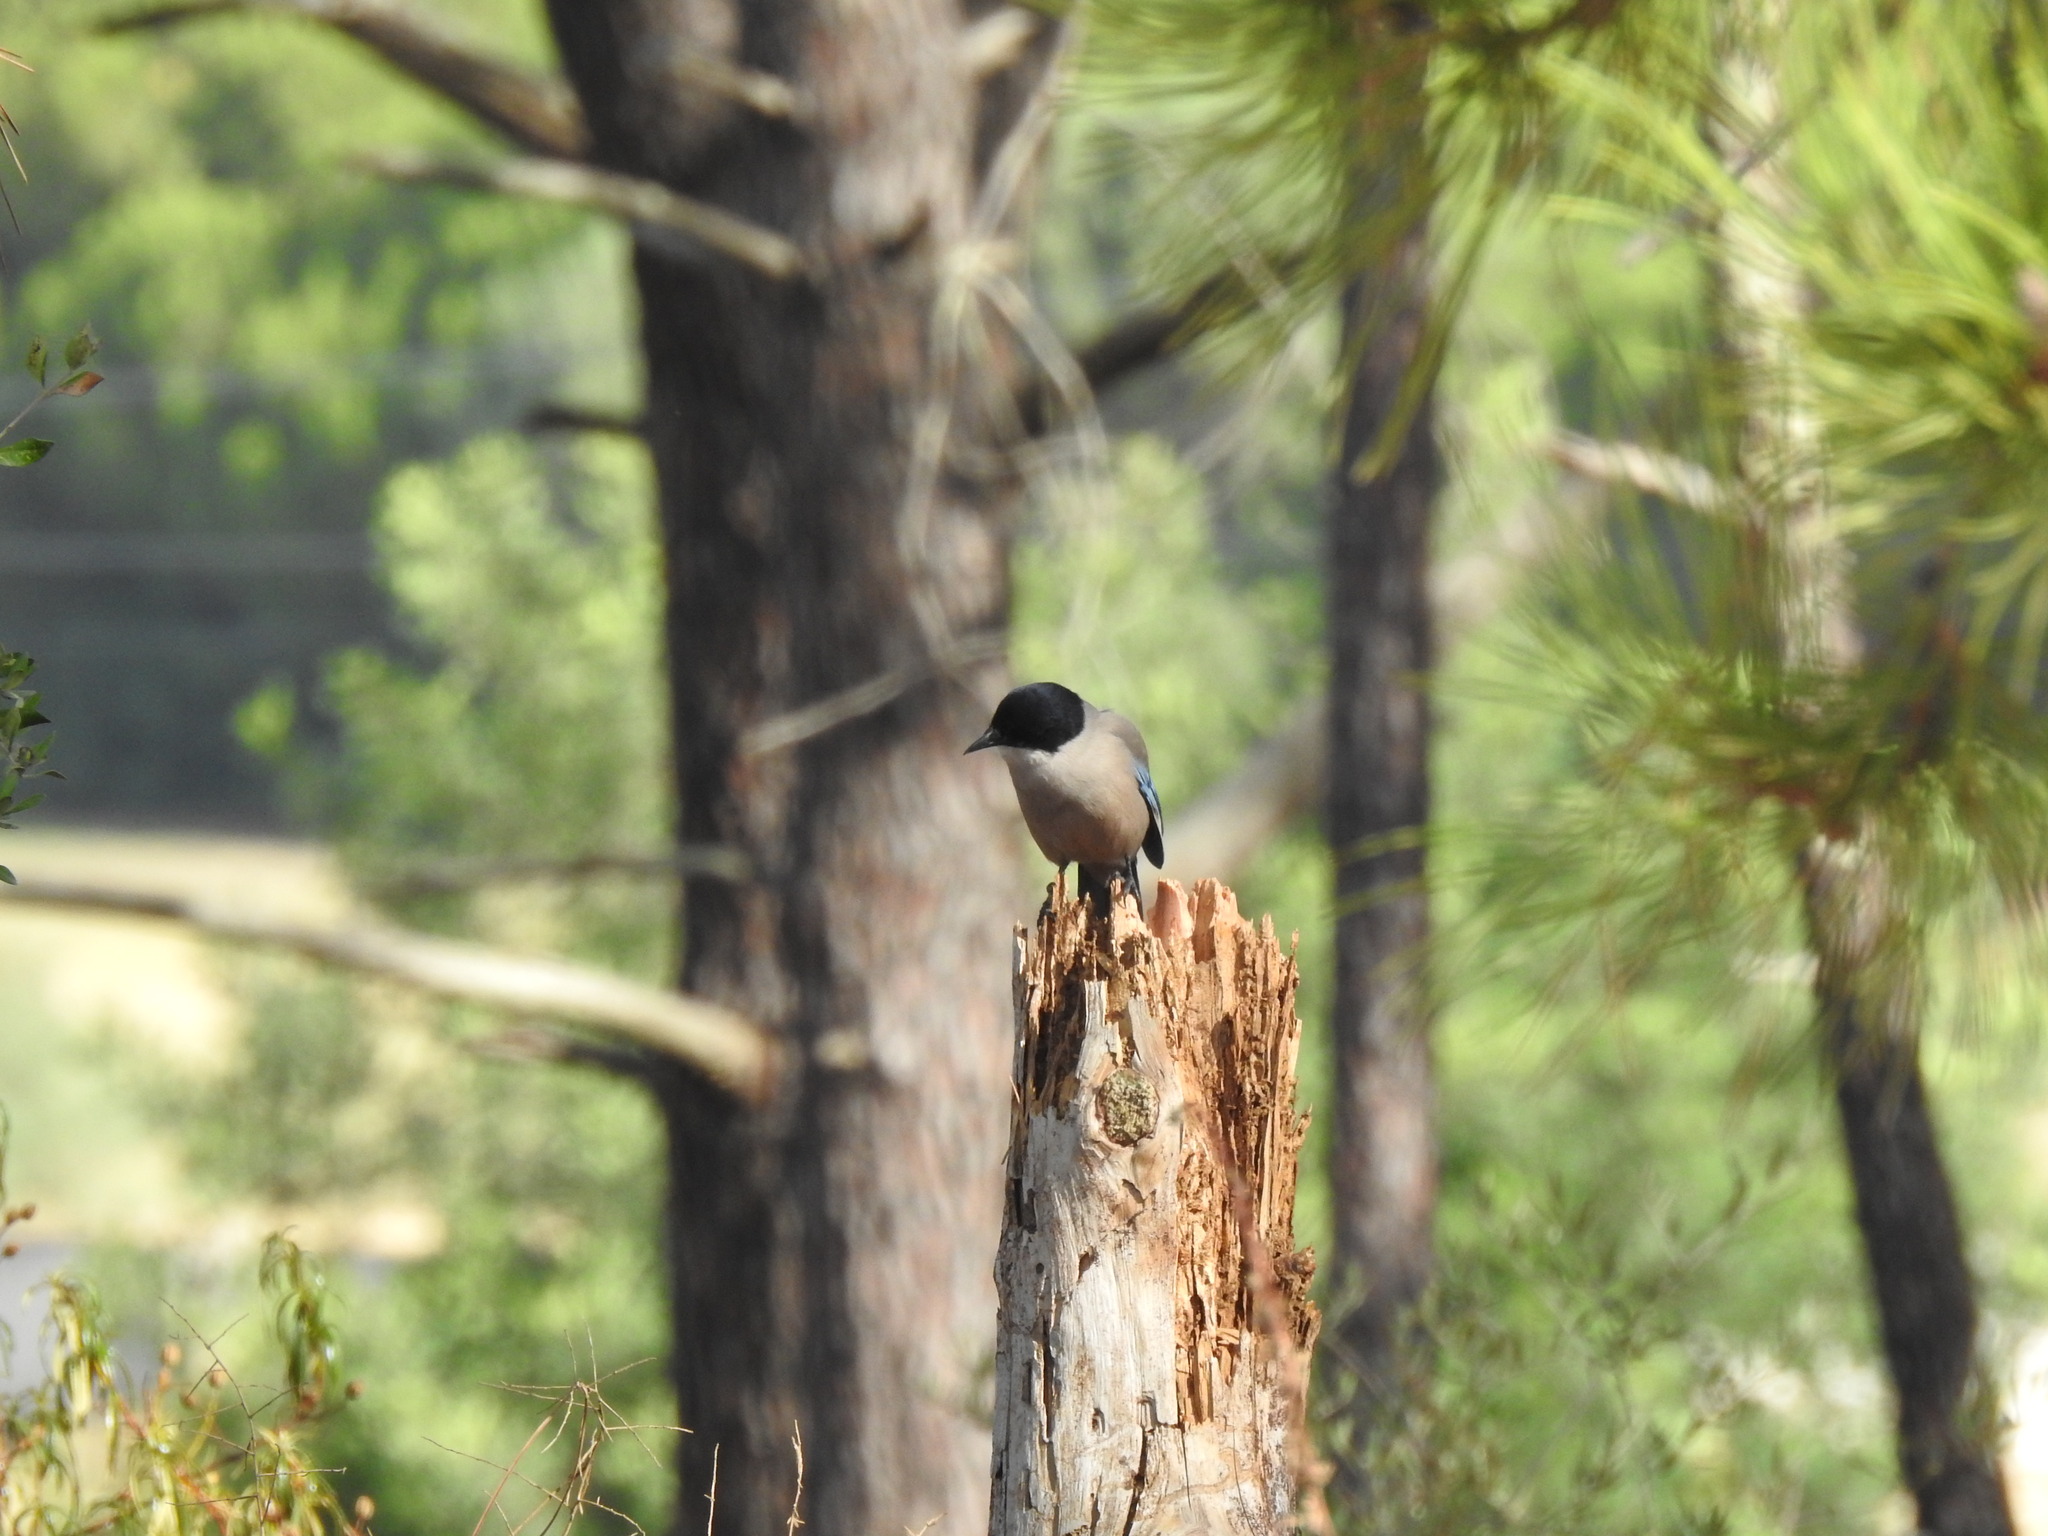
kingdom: Animalia
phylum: Chordata
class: Aves
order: Passeriformes
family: Corvidae
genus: Cyanopica
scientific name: Cyanopica cooki
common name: Iberian magpie
